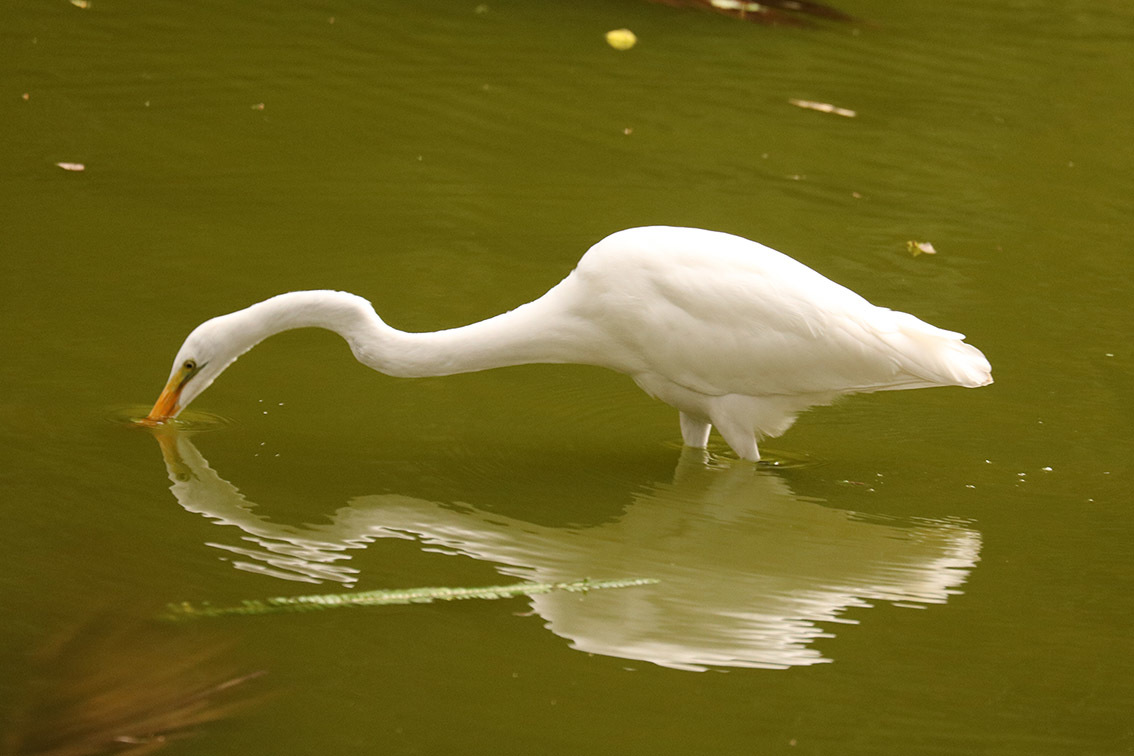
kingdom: Animalia
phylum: Chordata
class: Aves
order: Pelecaniformes
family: Ardeidae
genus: Ardea
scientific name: Ardea alba
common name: Great egret
